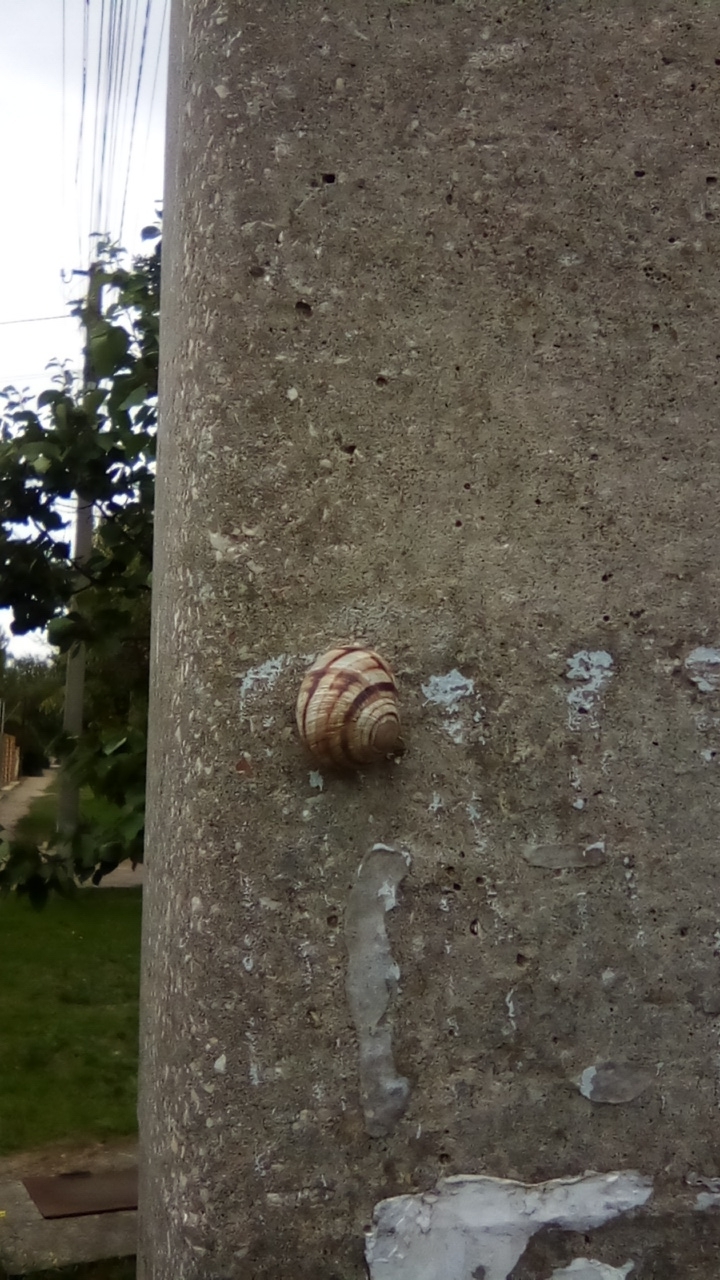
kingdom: Animalia
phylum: Mollusca
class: Gastropoda
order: Stylommatophora
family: Helicidae
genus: Helix
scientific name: Helix albescens
